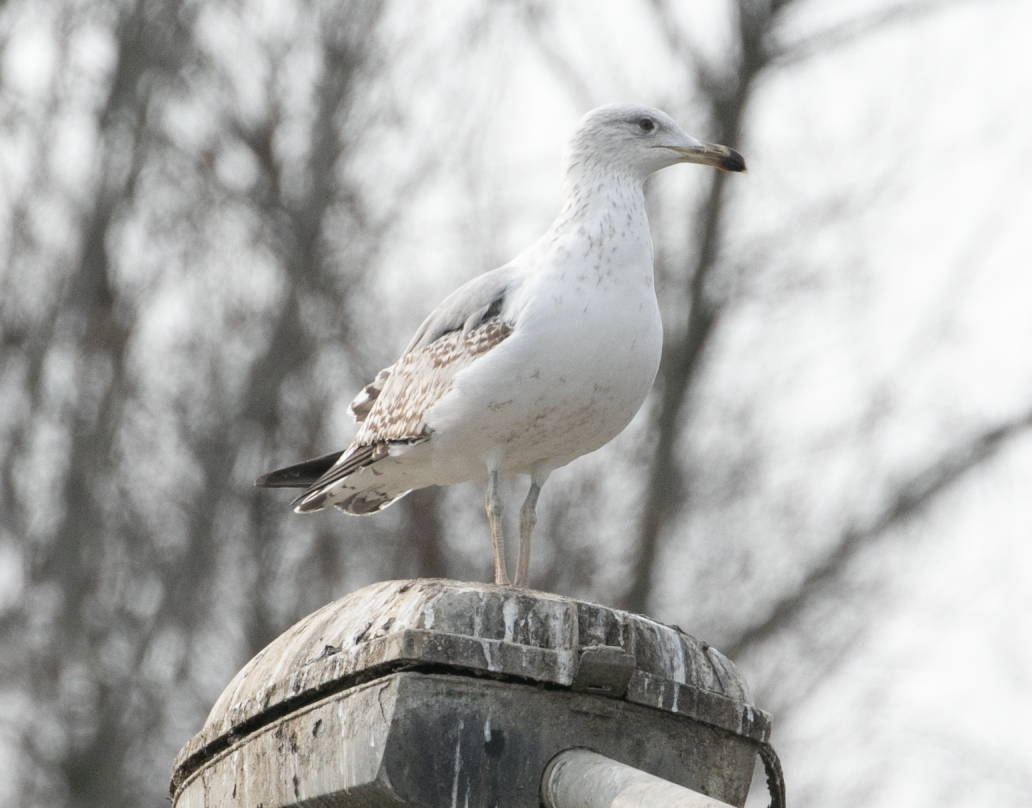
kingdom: Animalia
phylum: Chordata
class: Aves
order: Charadriiformes
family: Laridae
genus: Larus
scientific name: Larus michahellis
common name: Yellow-legged gull
